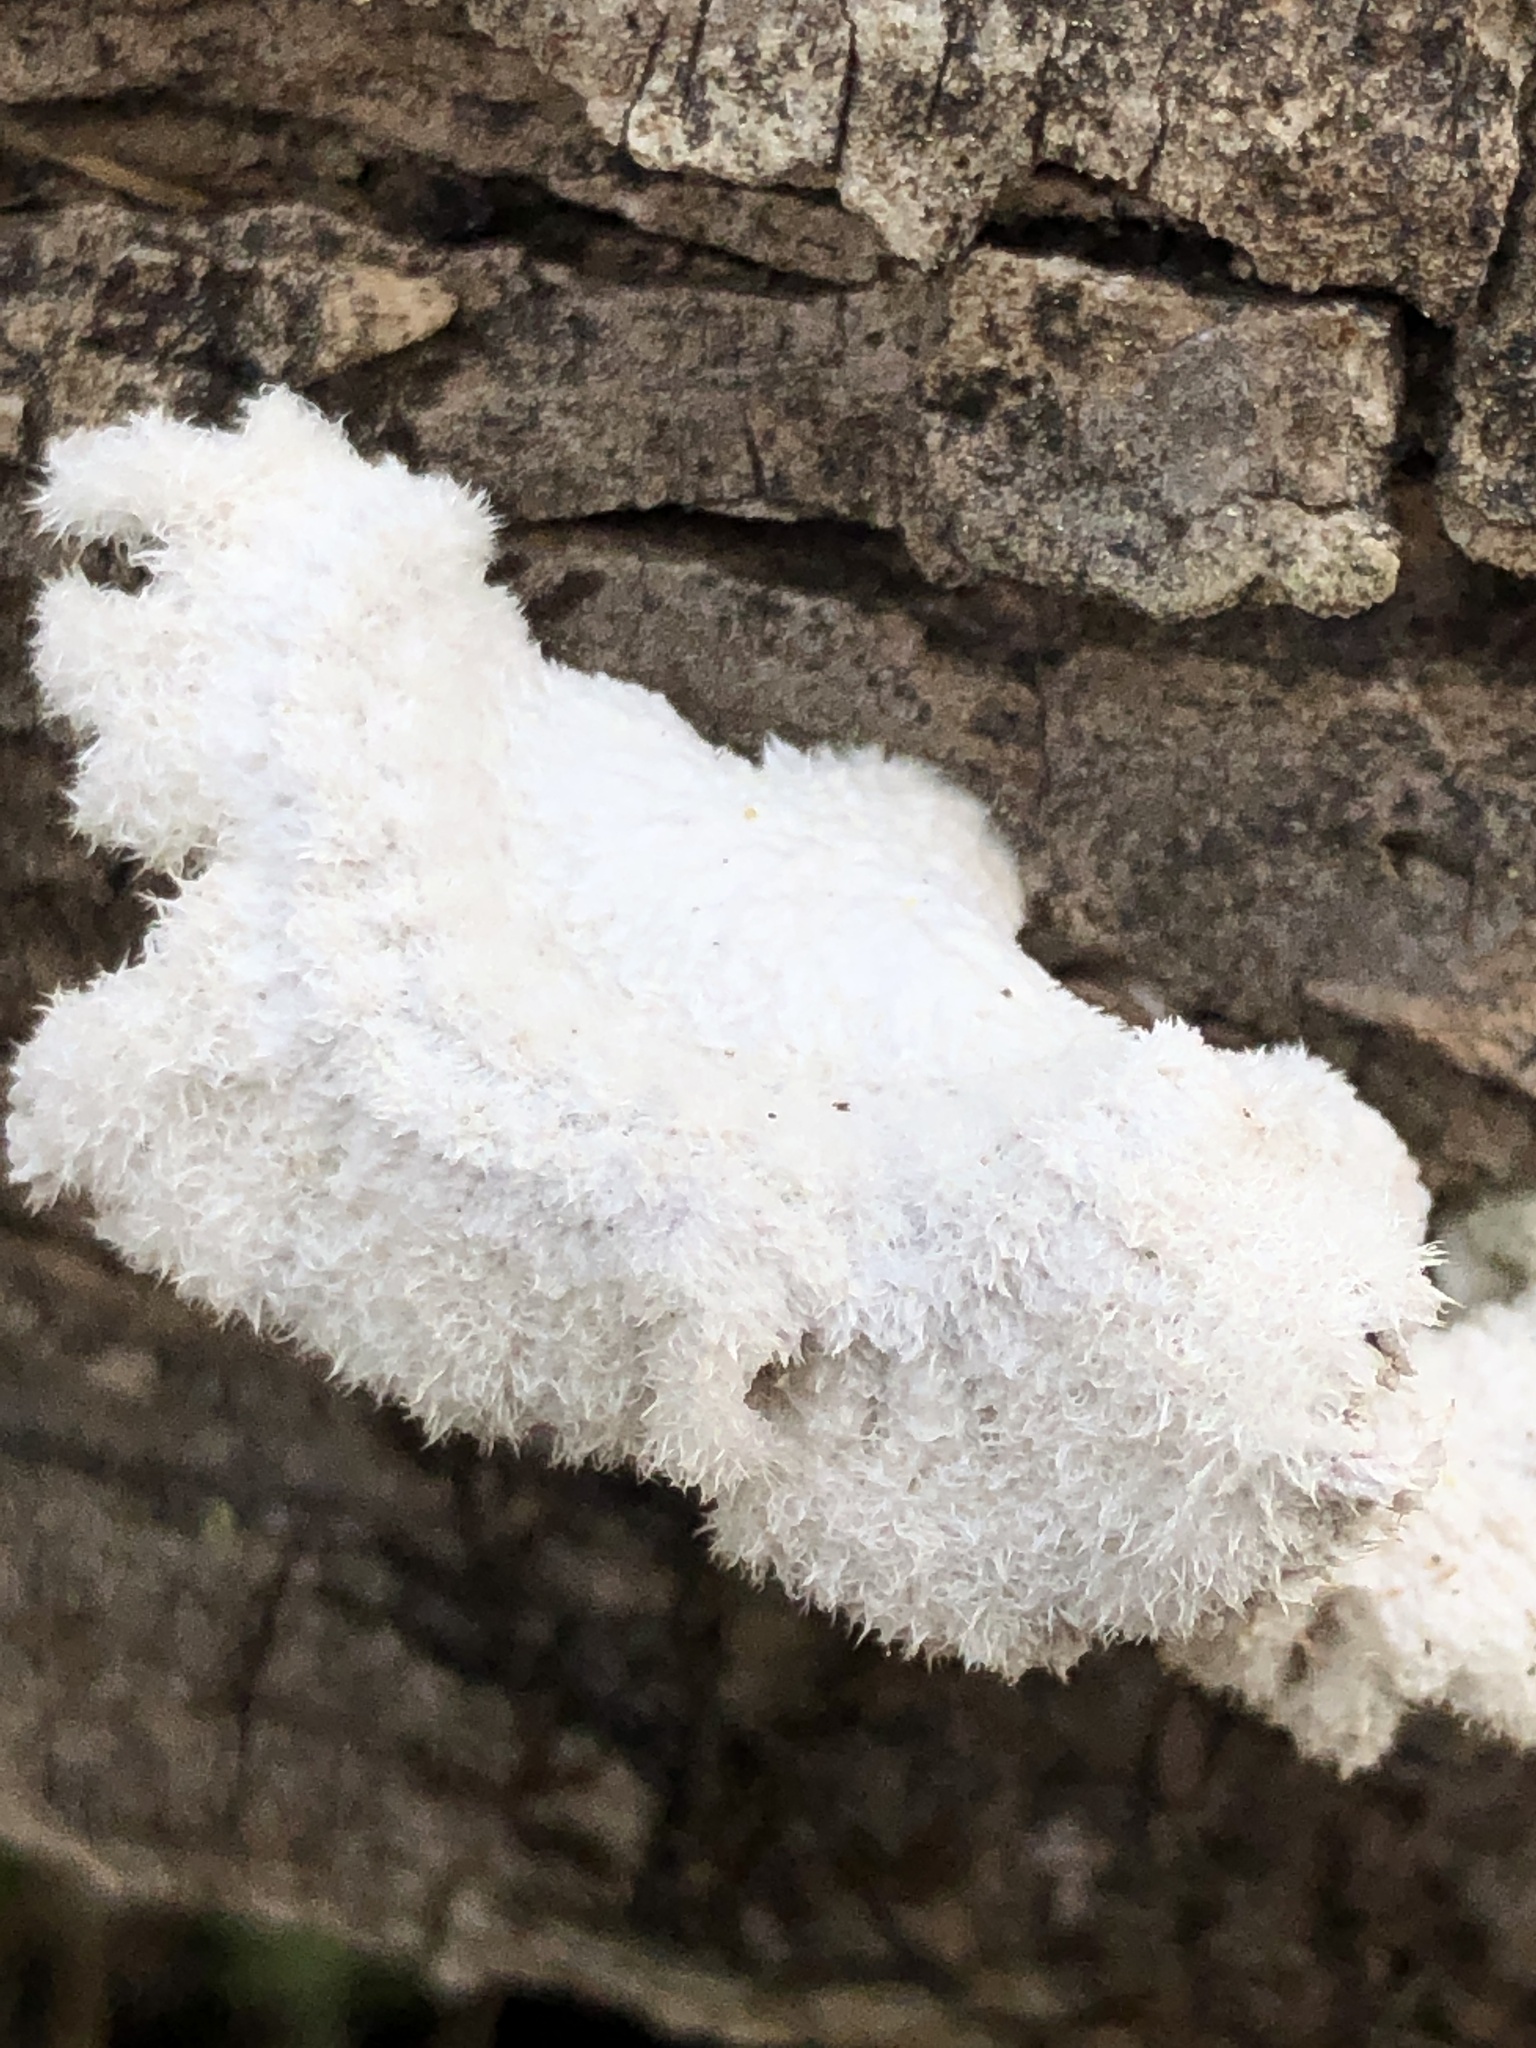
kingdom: Fungi
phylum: Basidiomycota
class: Agaricomycetes
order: Agaricales
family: Schizophyllaceae
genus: Schizophyllum
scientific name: Schizophyllum commune
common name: Common porecrust
